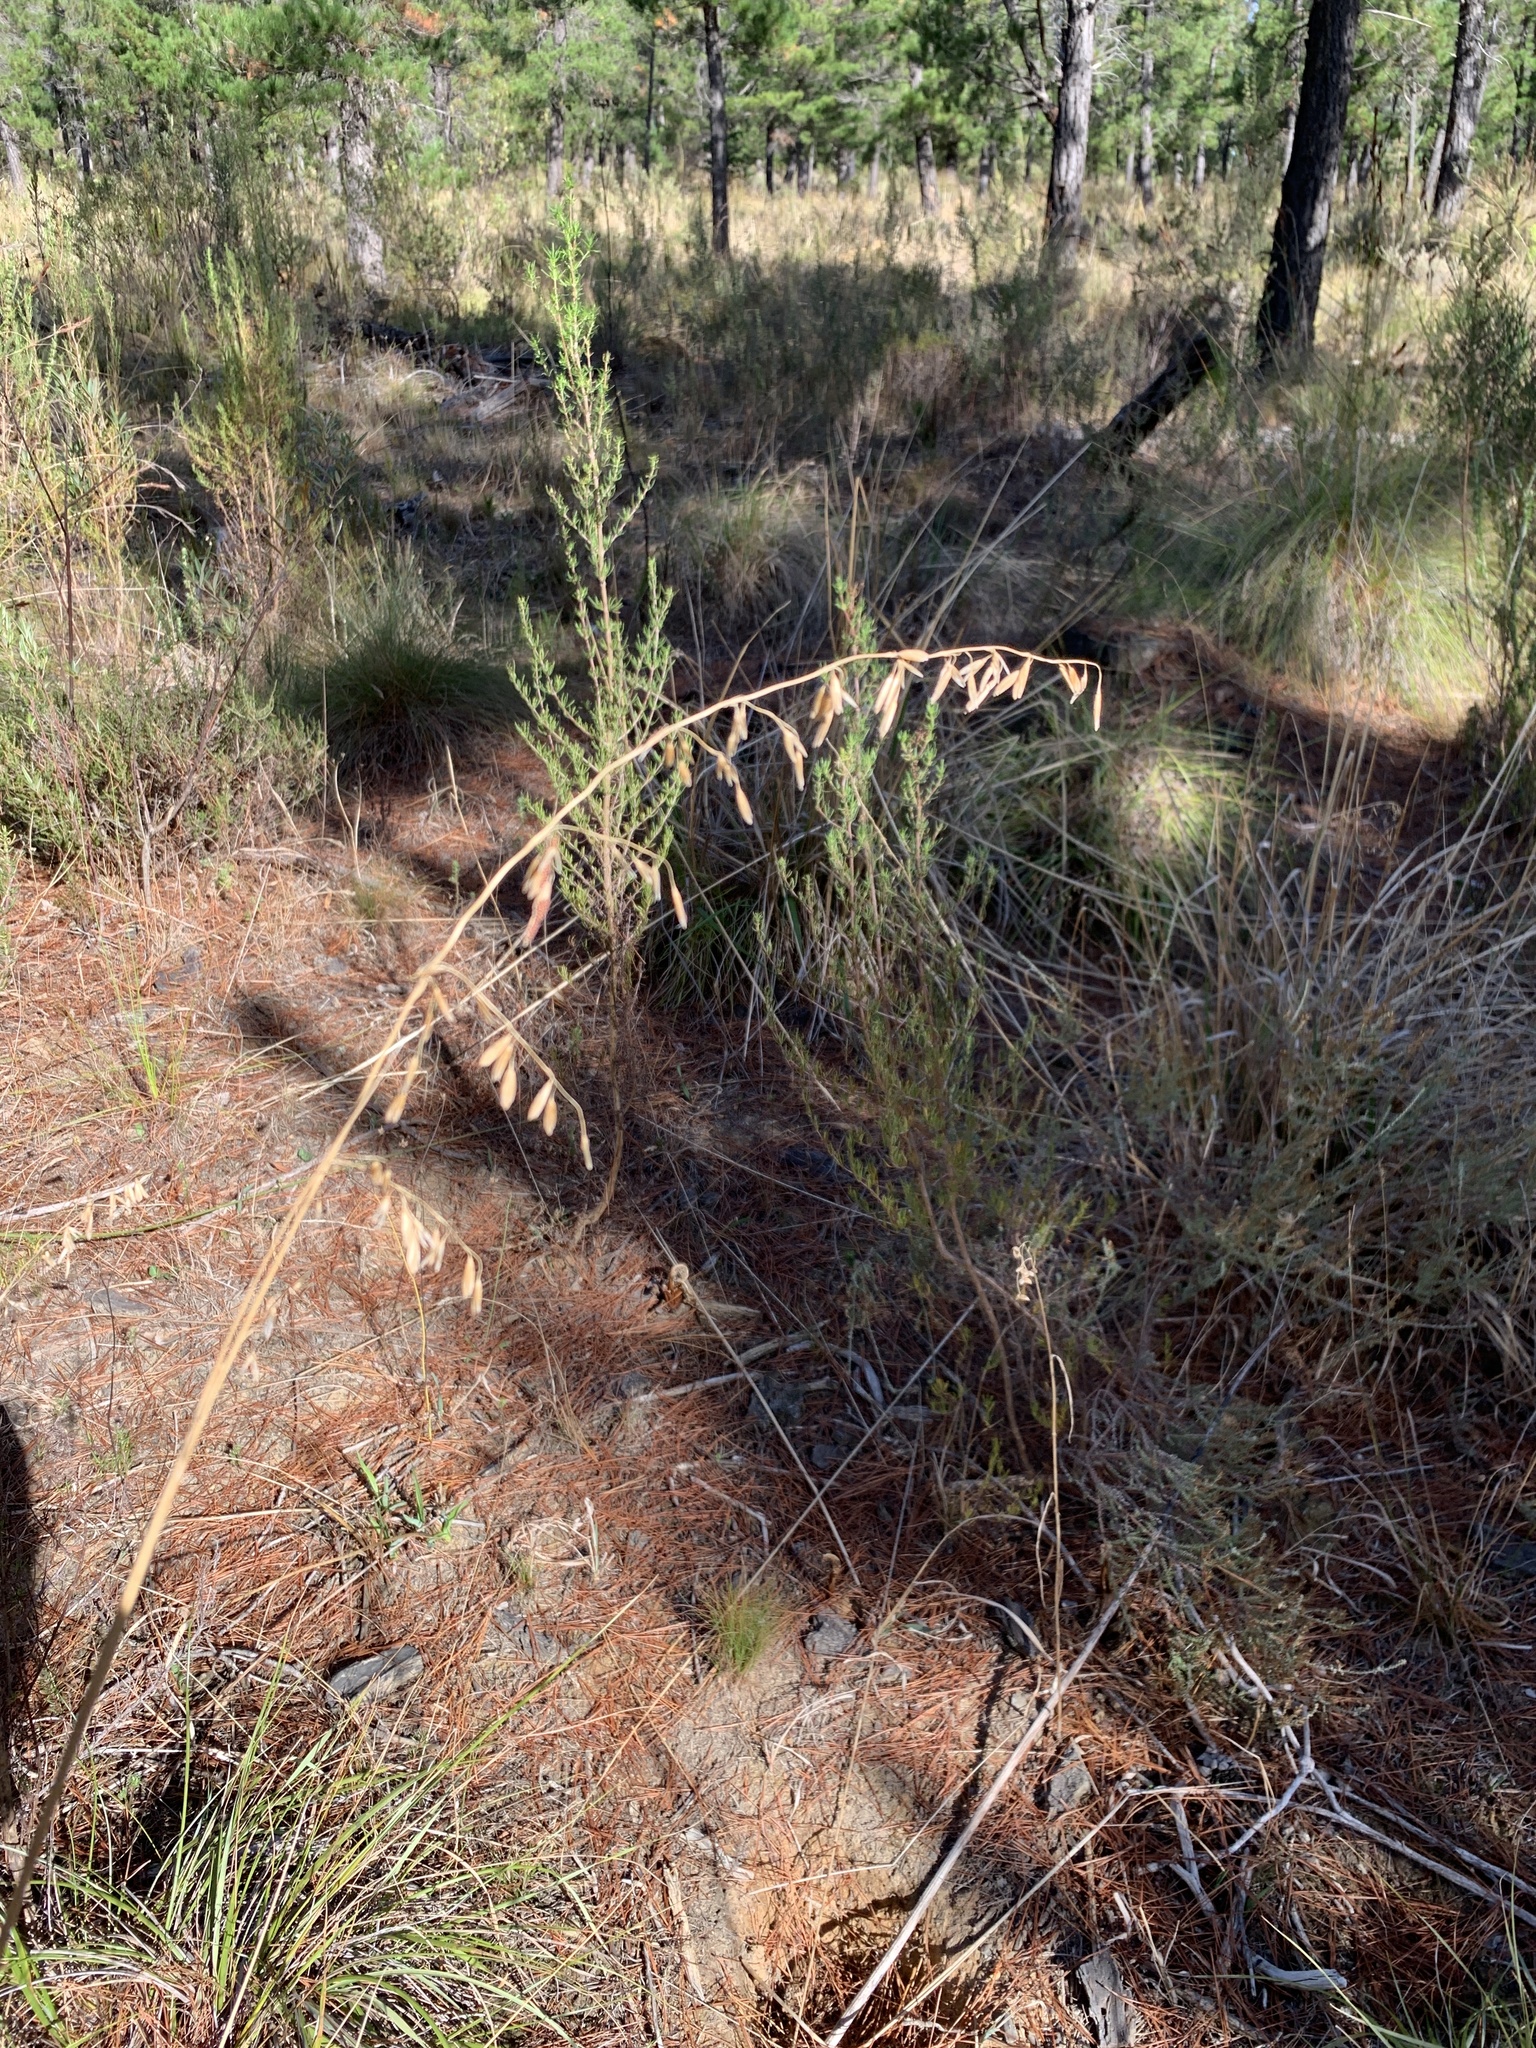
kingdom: Plantae
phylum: Tracheophyta
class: Liliopsida
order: Poales
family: Poaceae
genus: Ehrharta
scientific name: Ehrharta calycina
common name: Perennial veldtgrass
